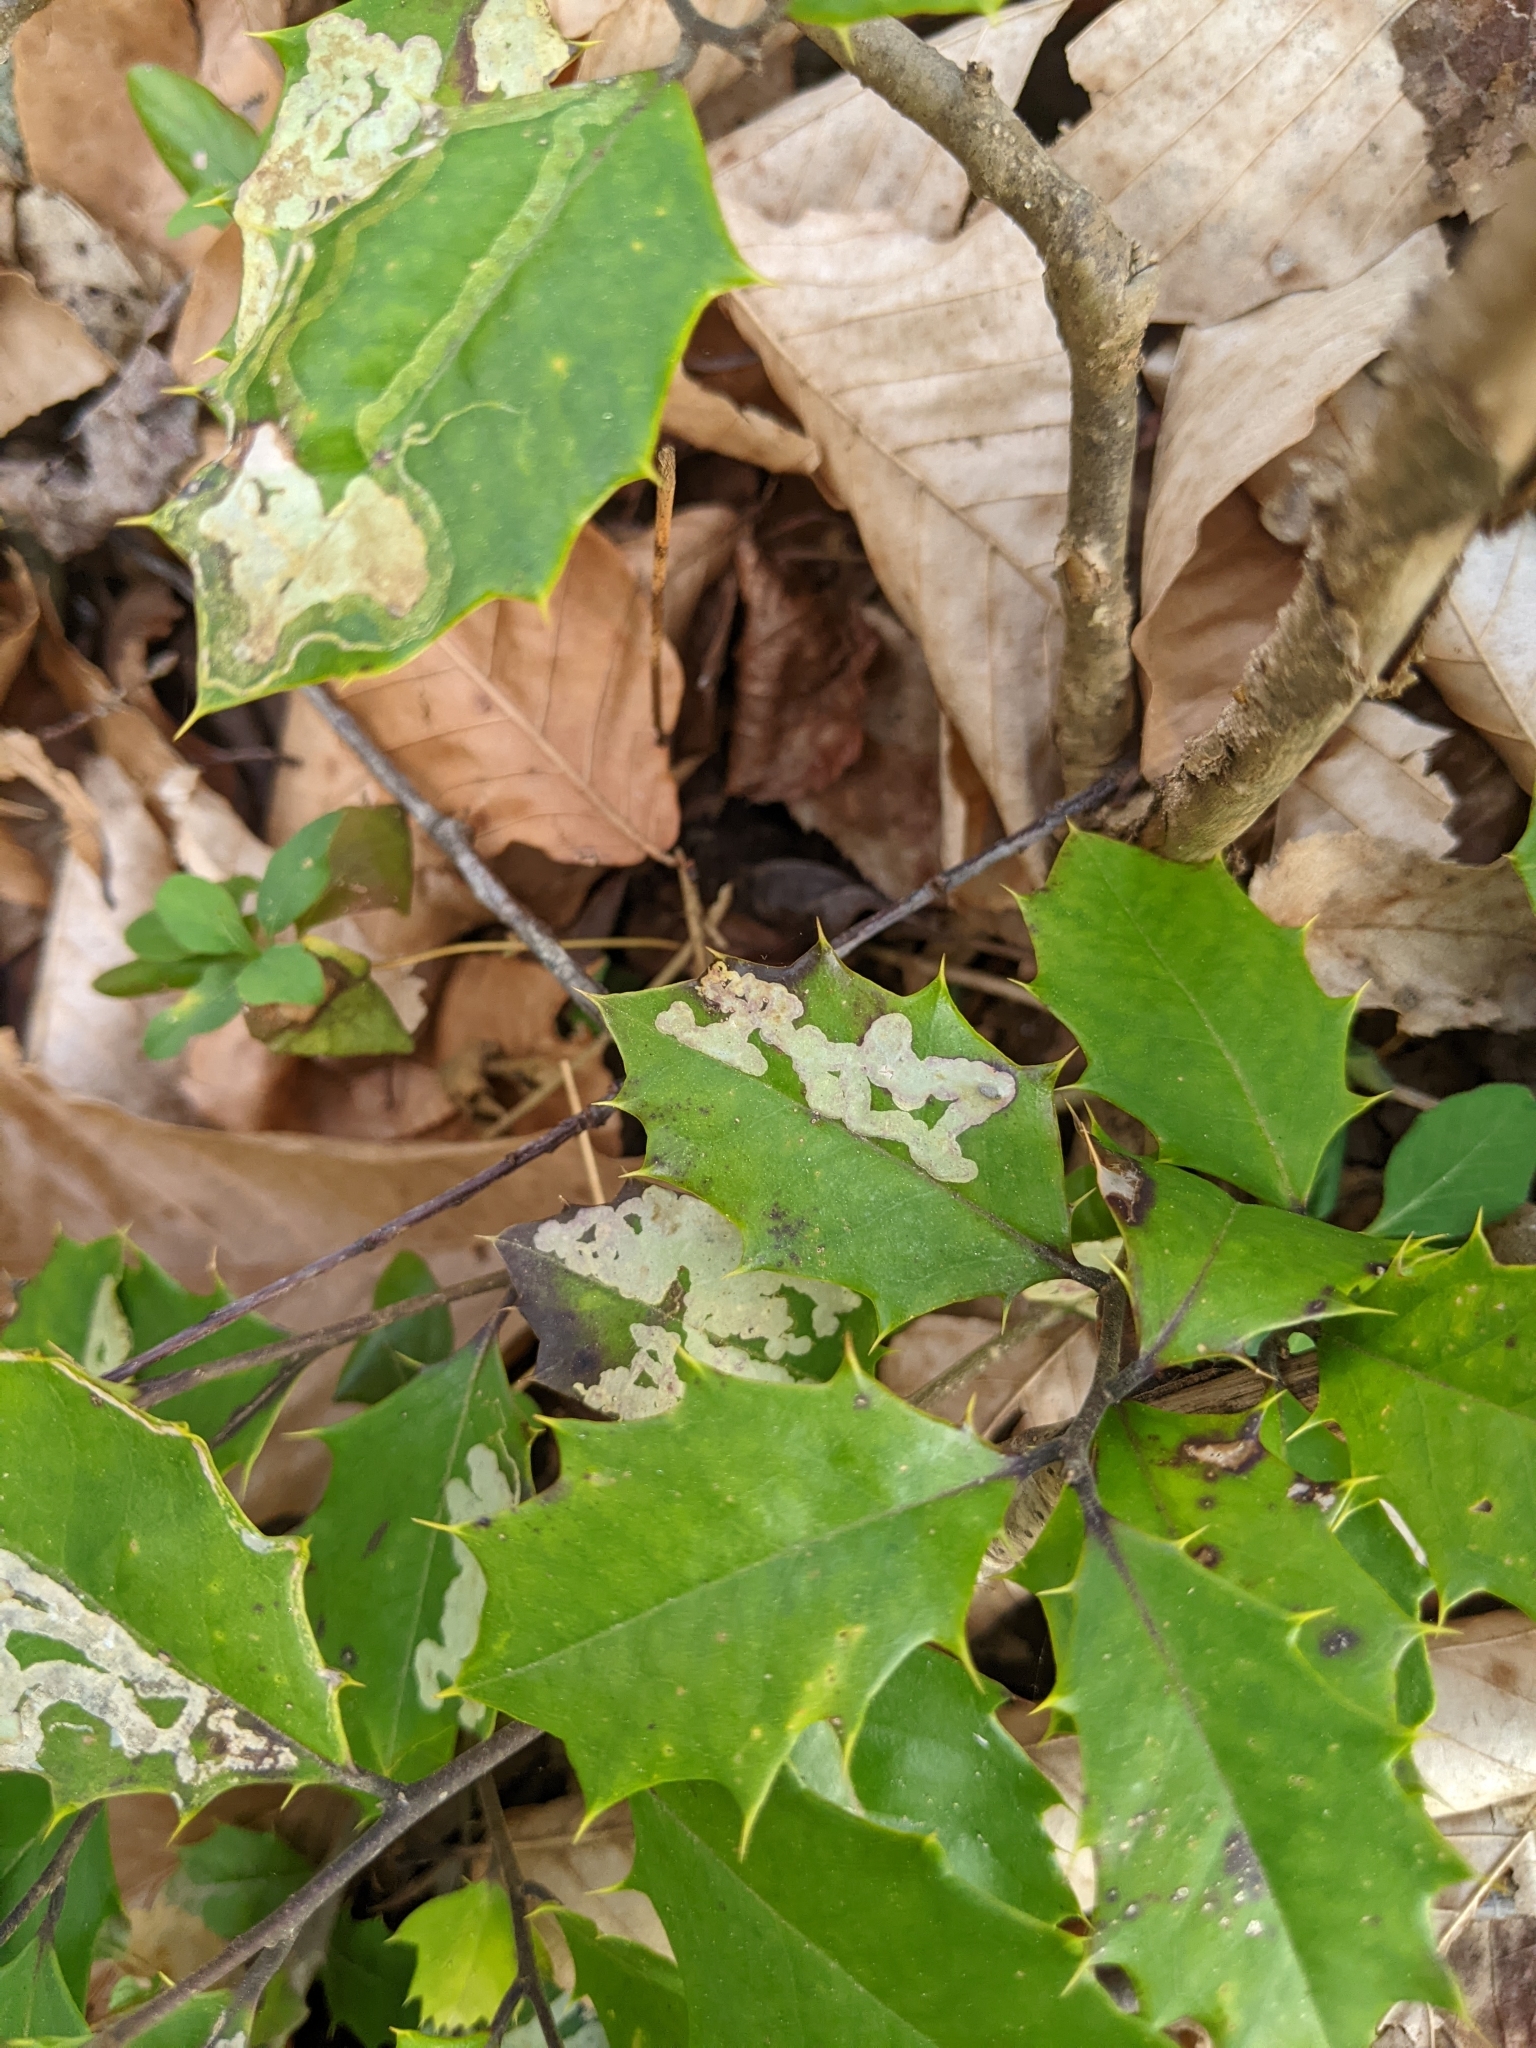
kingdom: Animalia
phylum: Arthropoda
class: Insecta
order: Diptera
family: Agromyzidae
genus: Phytomyza
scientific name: Phytomyza ilicicola
